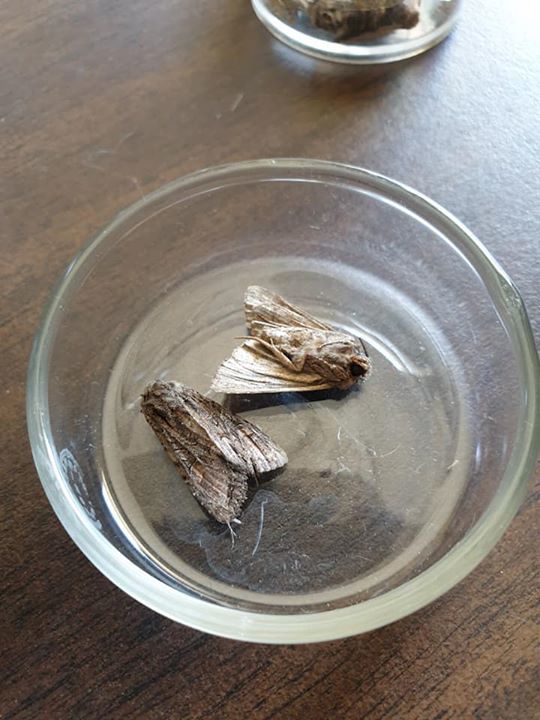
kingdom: Animalia
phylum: Arthropoda
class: Insecta
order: Lepidoptera
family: Noctuidae
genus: Ichneutica
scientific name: Ichneutica mutans
